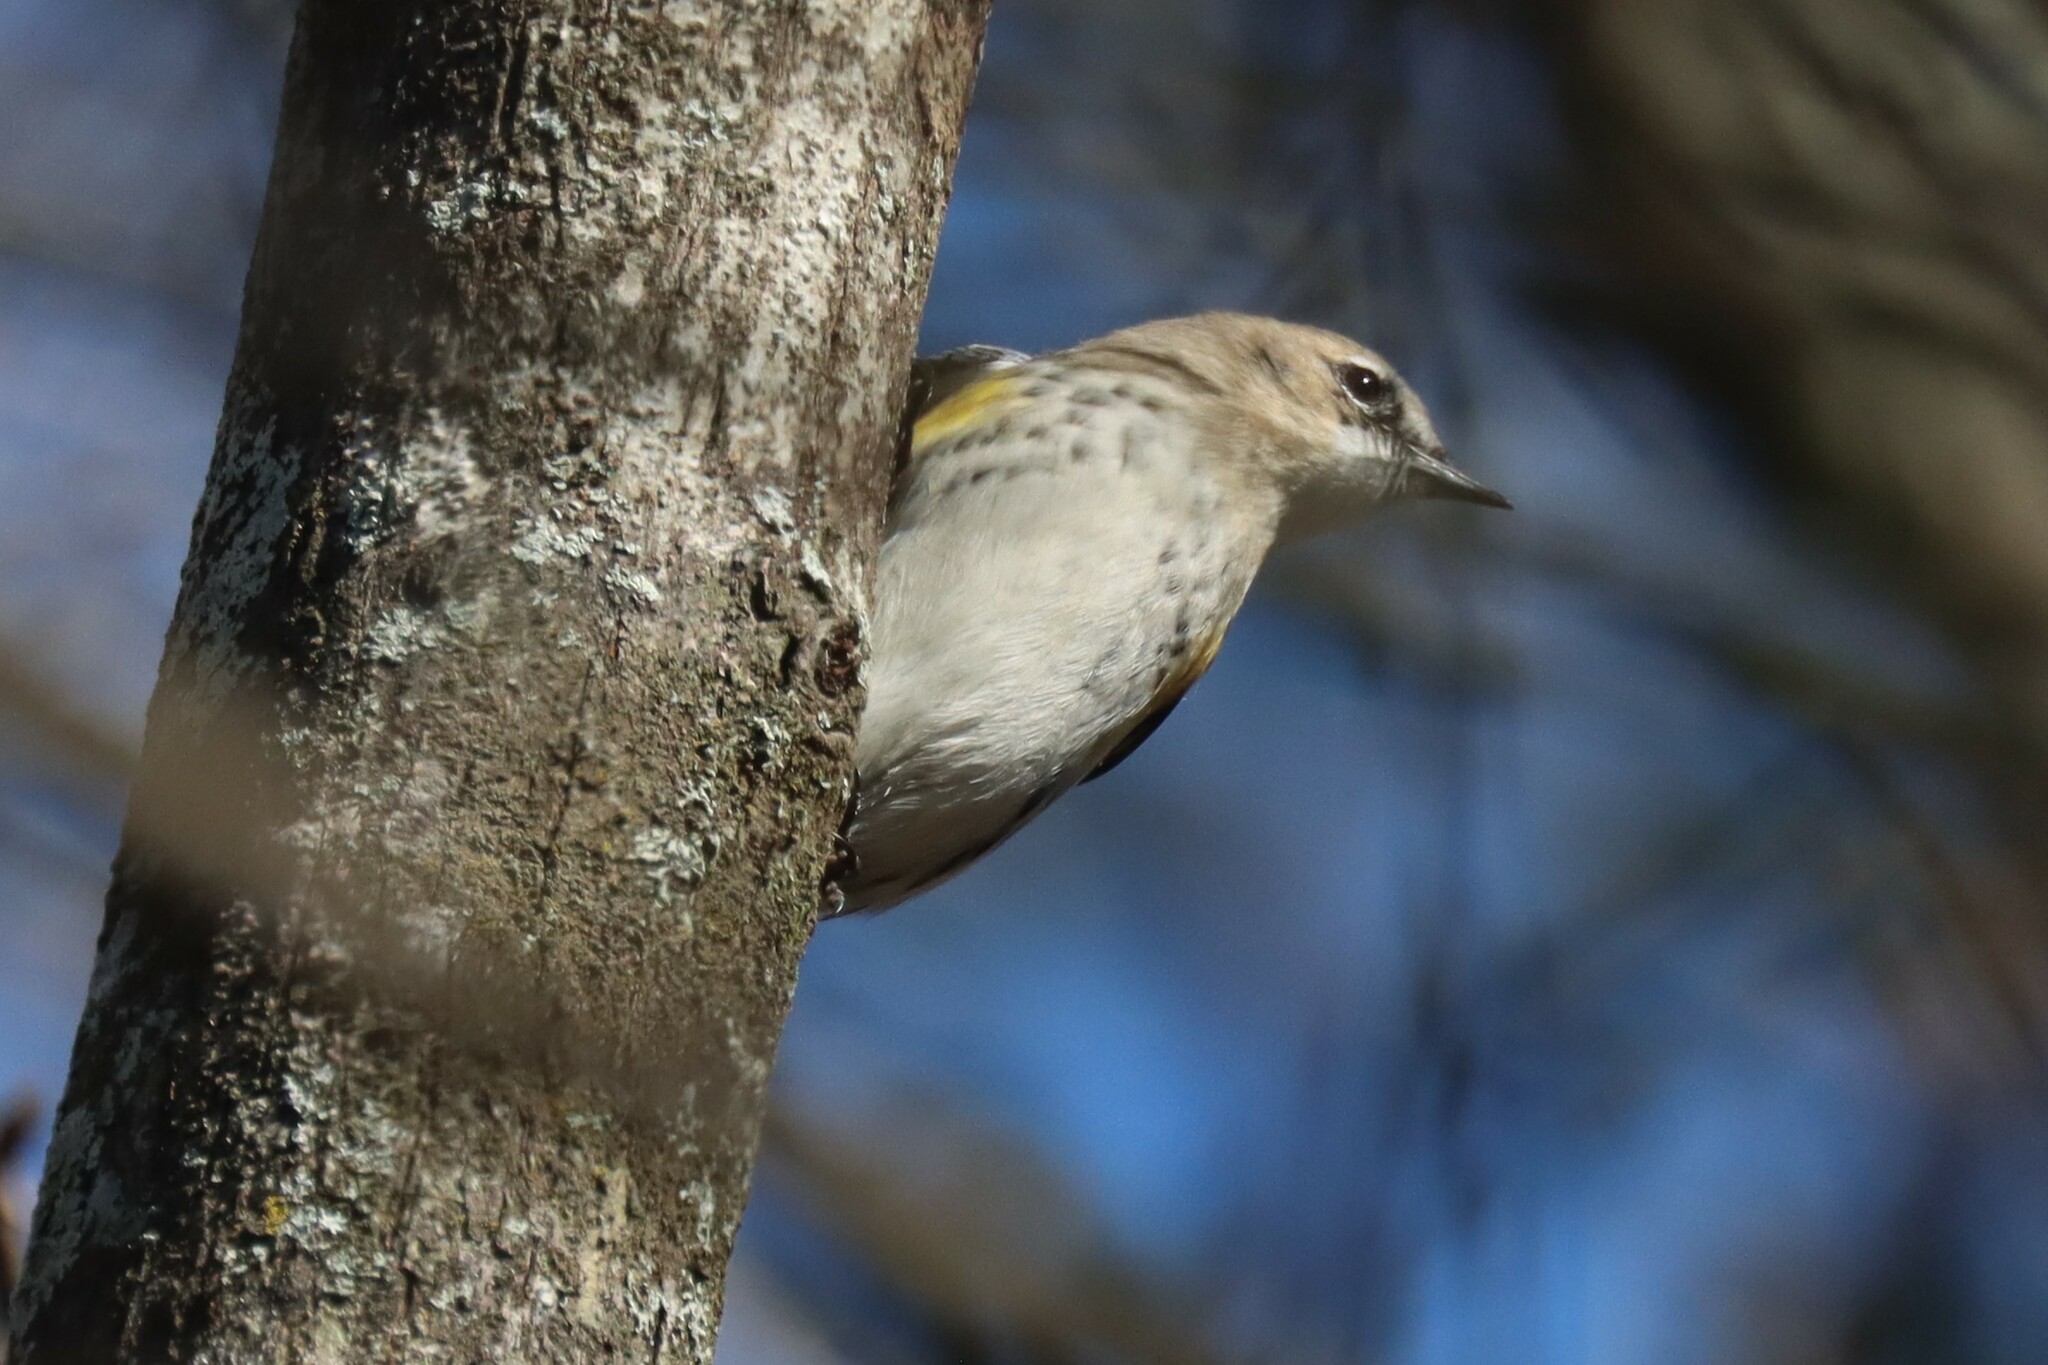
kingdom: Animalia
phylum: Chordata
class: Aves
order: Passeriformes
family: Parulidae
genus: Setophaga
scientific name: Setophaga coronata
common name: Myrtle warbler
